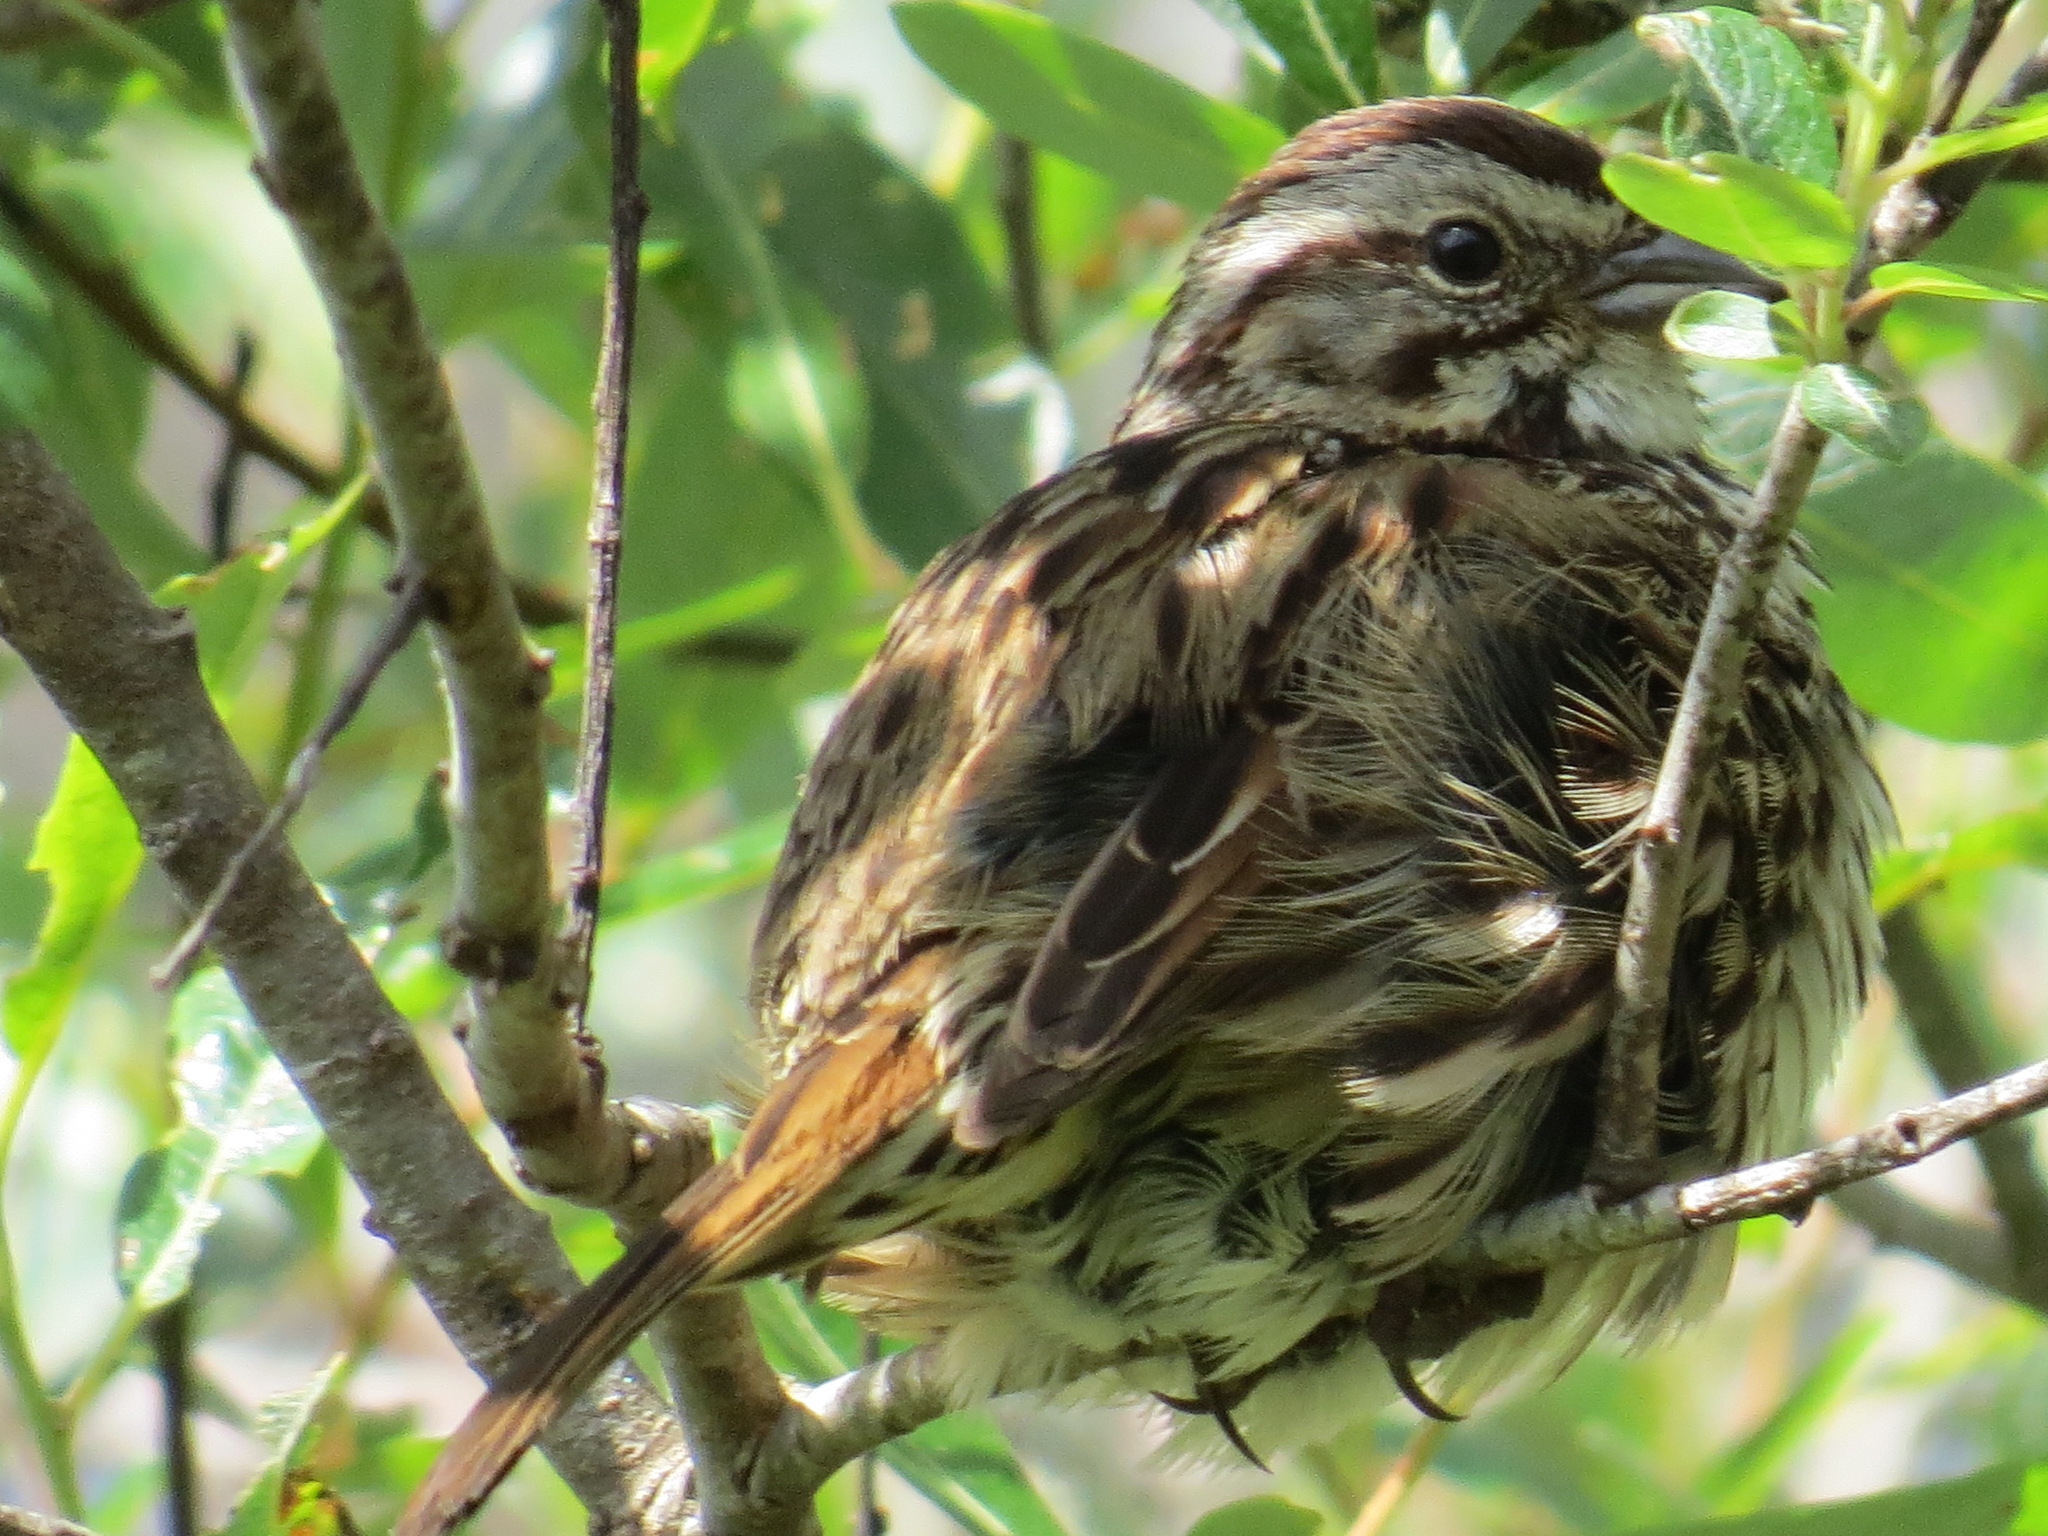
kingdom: Animalia
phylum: Chordata
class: Aves
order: Passeriformes
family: Passerellidae
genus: Melospiza
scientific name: Melospiza melodia
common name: Song sparrow
